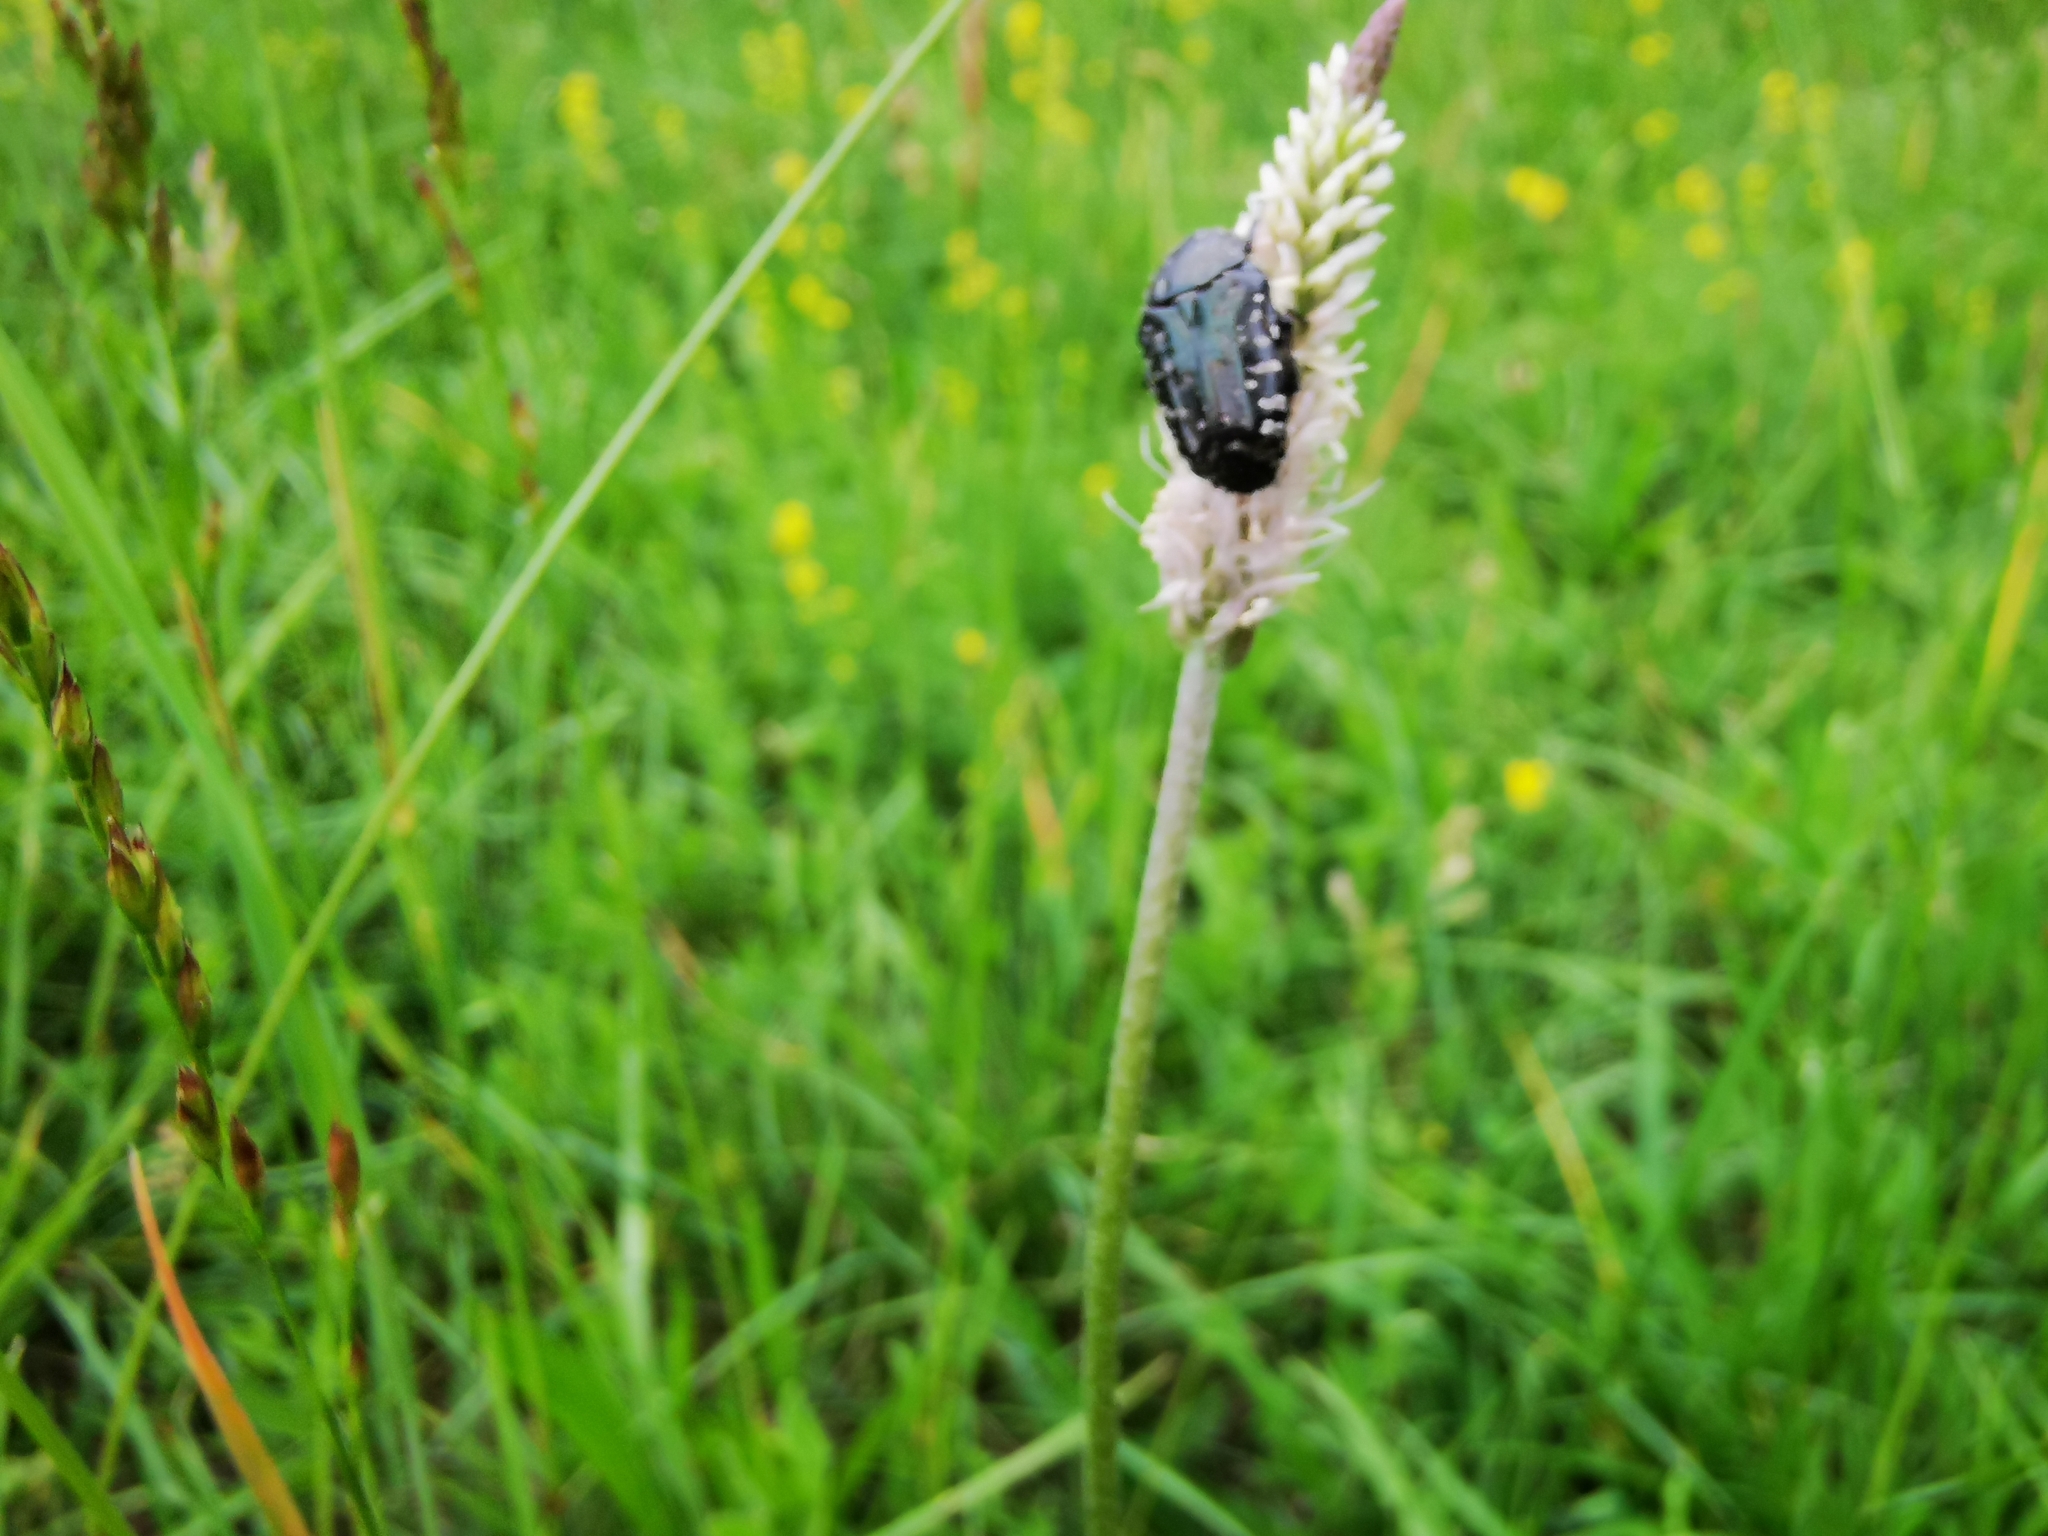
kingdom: Animalia
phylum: Arthropoda
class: Insecta
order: Coleoptera
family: Scarabaeidae
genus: Oxythyrea
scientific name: Oxythyrea funesta
